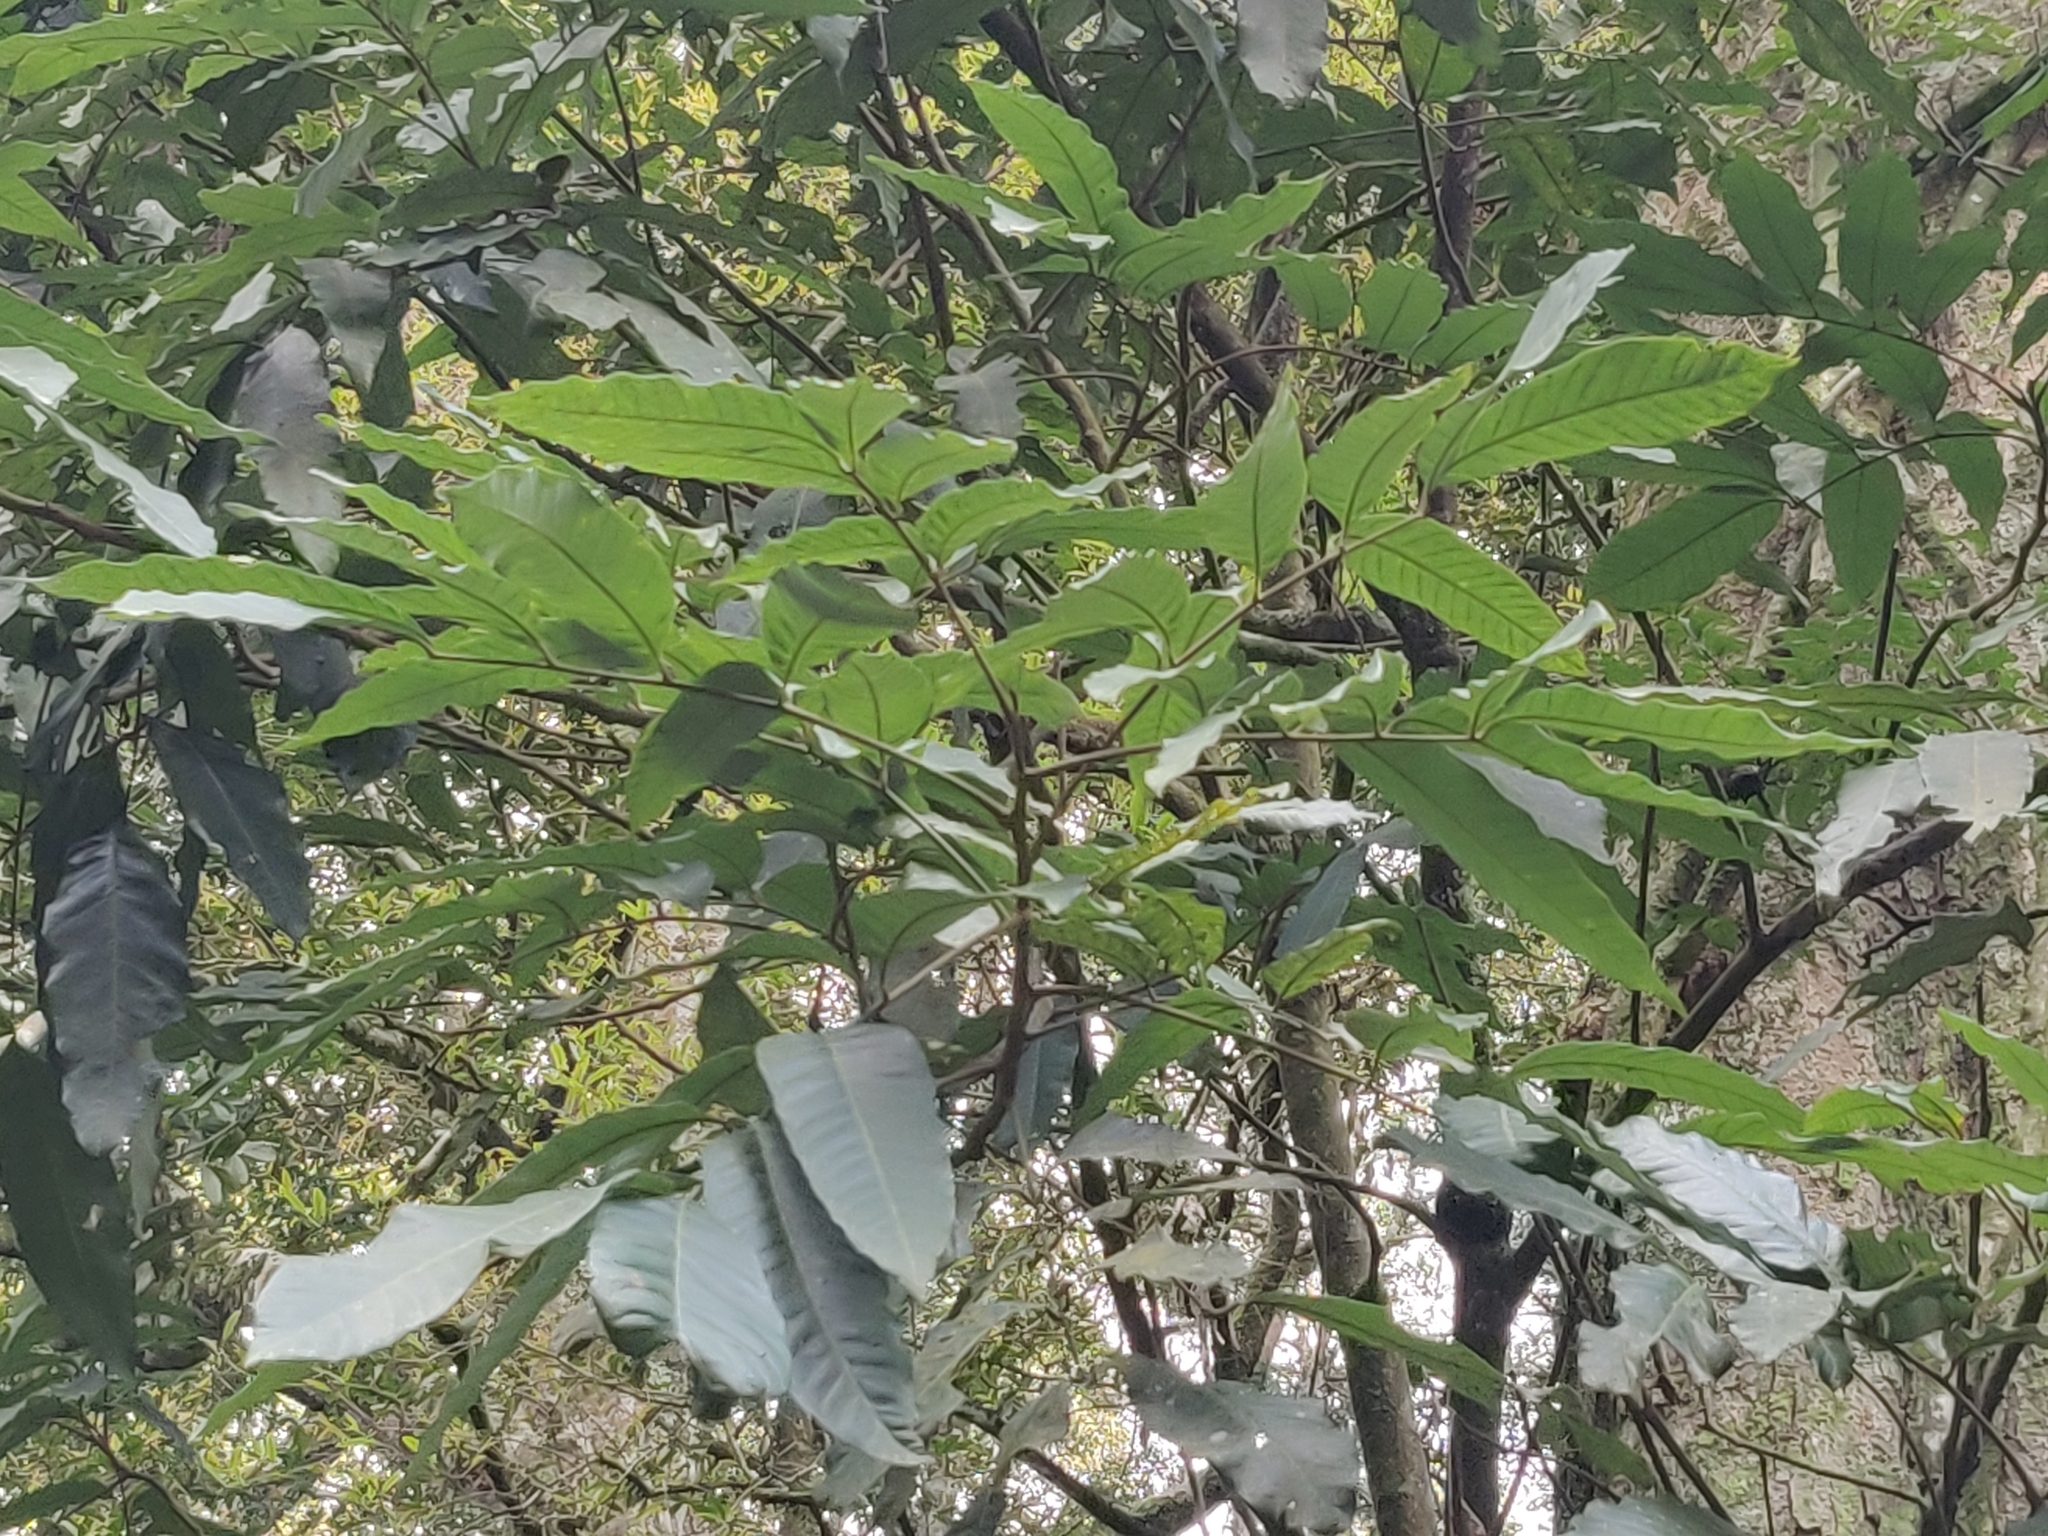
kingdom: Plantae
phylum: Tracheophyta
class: Magnoliopsida
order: Sapindales
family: Sapindaceae
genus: Dimocarpus
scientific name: Dimocarpus longan
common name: Longan
